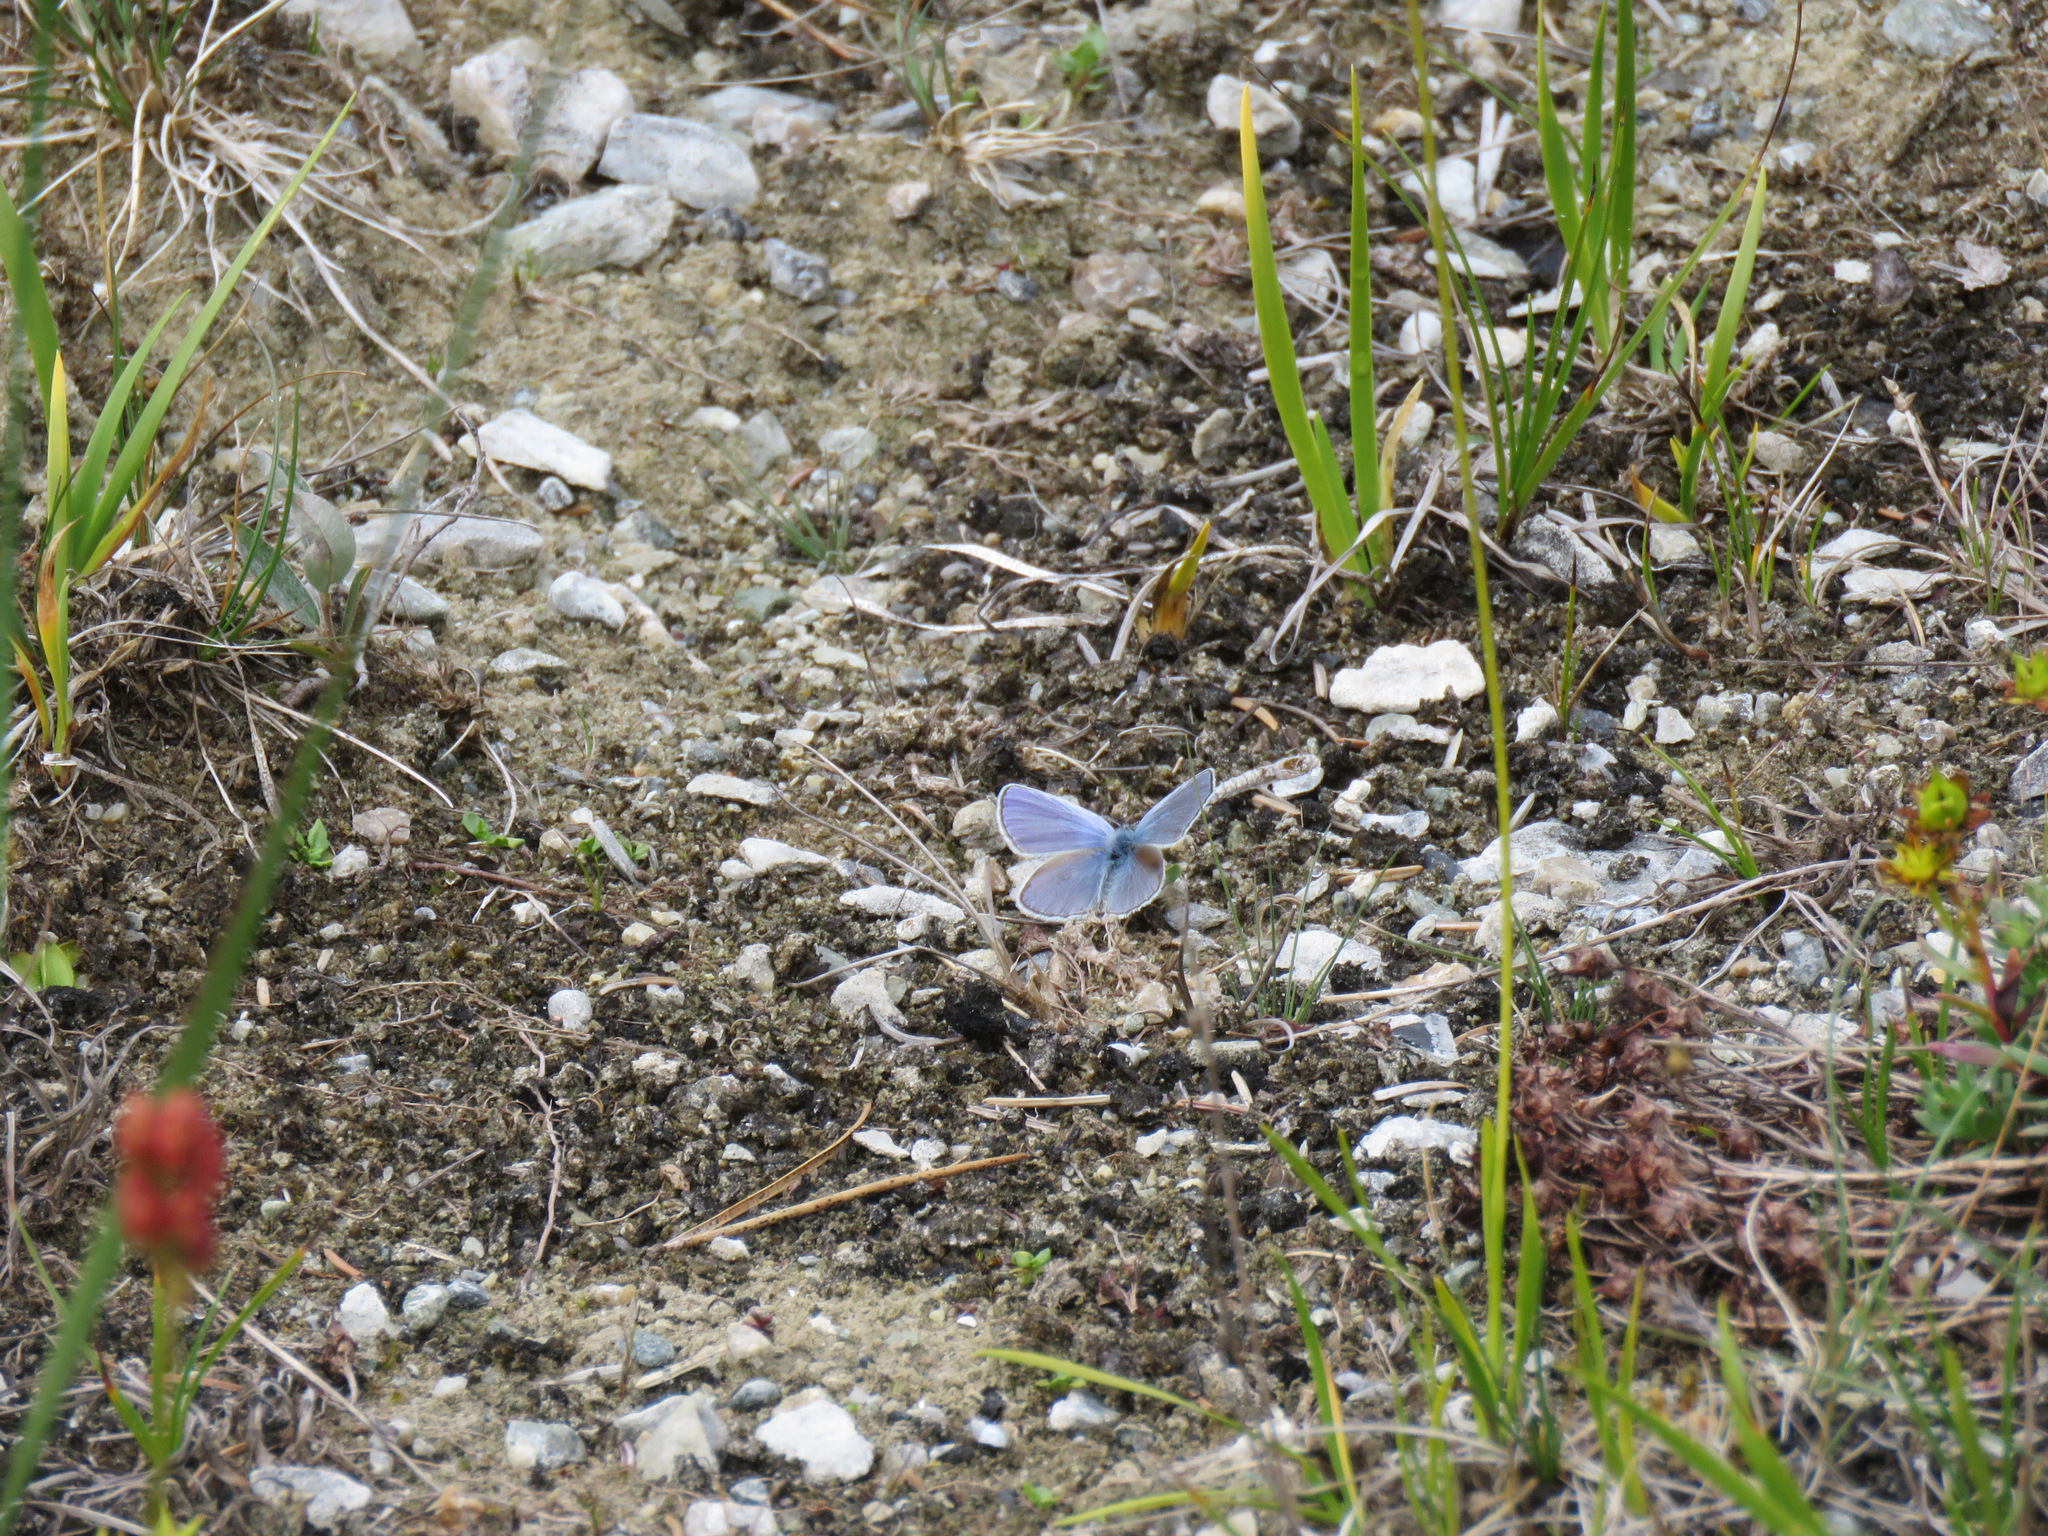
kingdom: Animalia
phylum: Arthropoda
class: Insecta
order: Lepidoptera
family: Lycaenidae
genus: Lycaeides
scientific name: Lycaeides idas
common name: Northern blue
